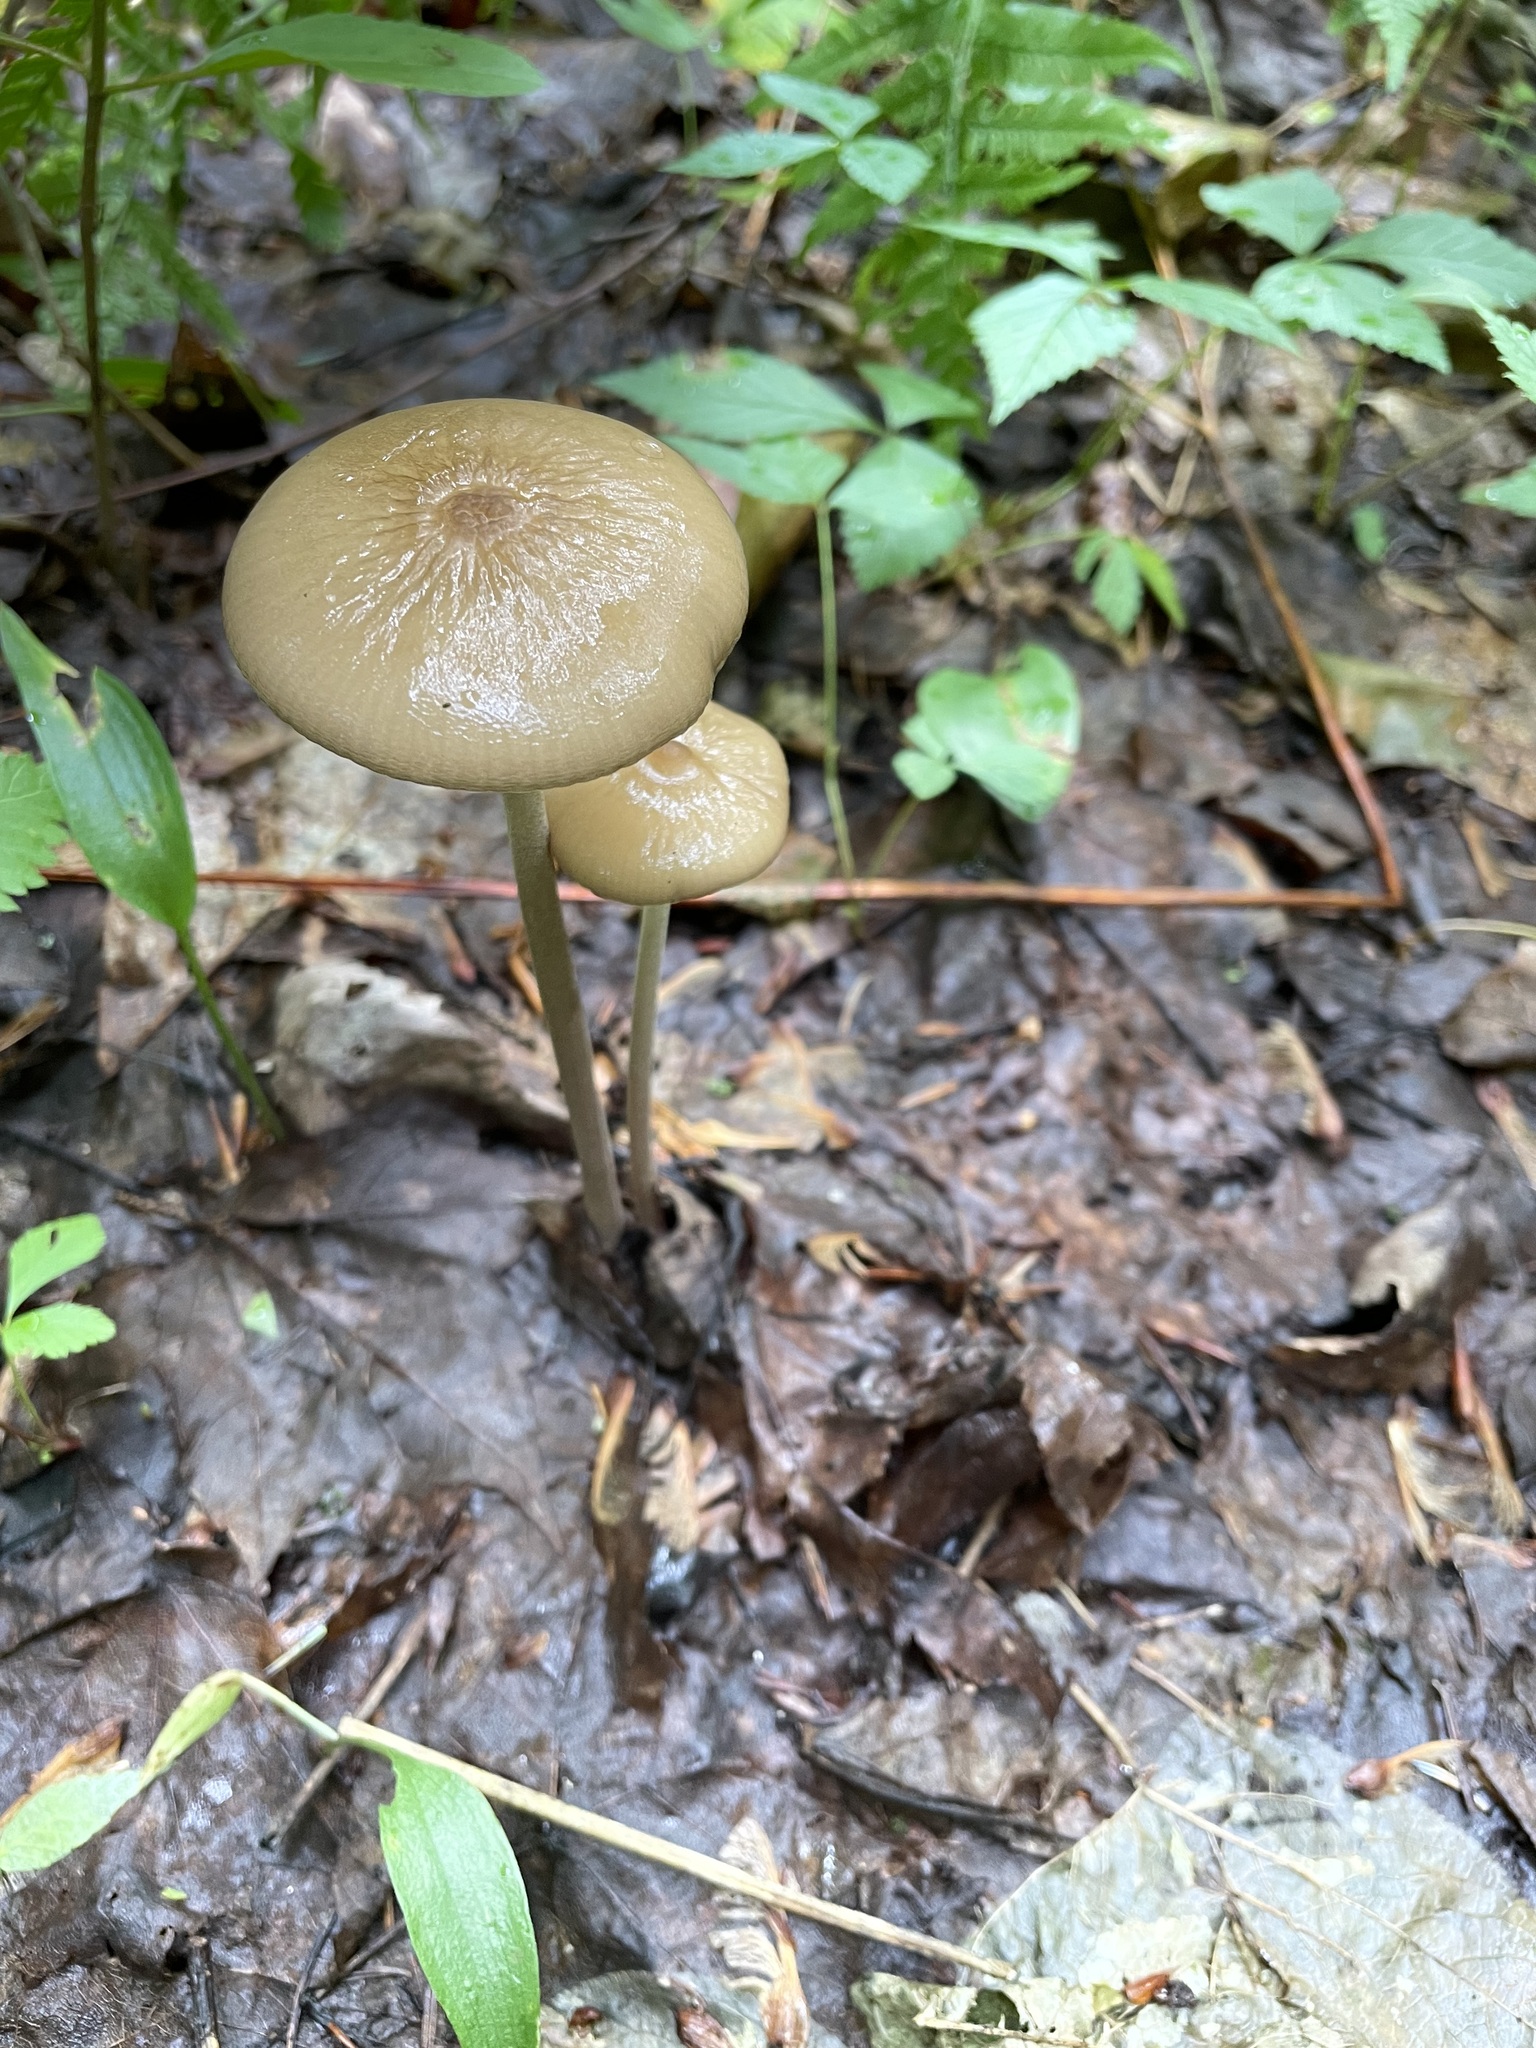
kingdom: Fungi
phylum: Basidiomycota
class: Agaricomycetes
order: Agaricales
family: Physalacriaceae
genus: Hymenopellis
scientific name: Hymenopellis furfuracea
